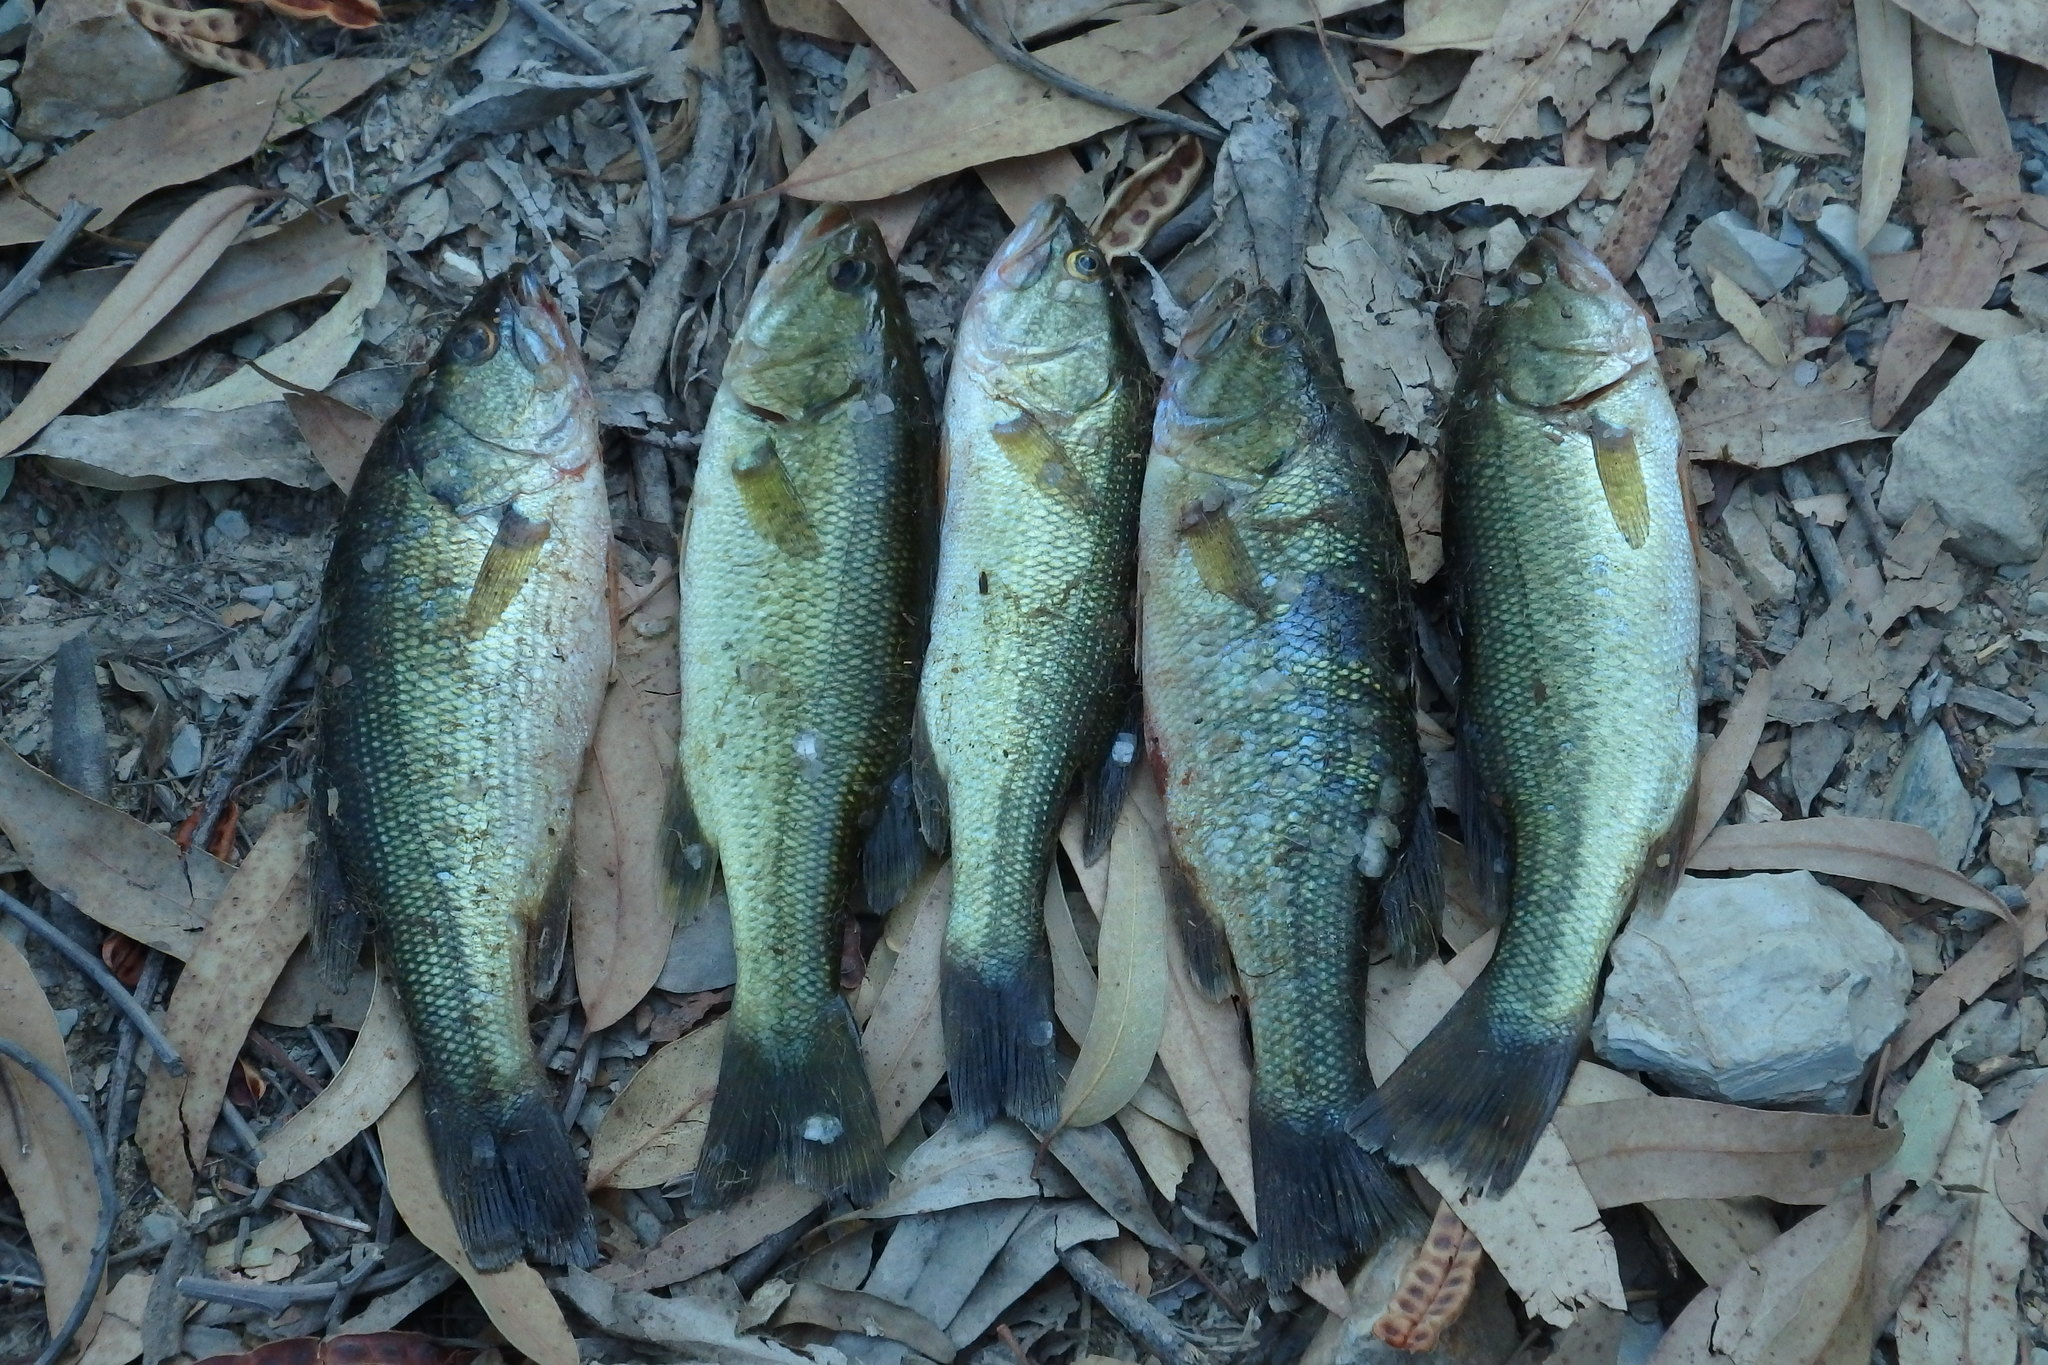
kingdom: Animalia
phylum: Chordata
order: Perciformes
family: Centrarchidae
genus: Micropterus
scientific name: Micropterus
